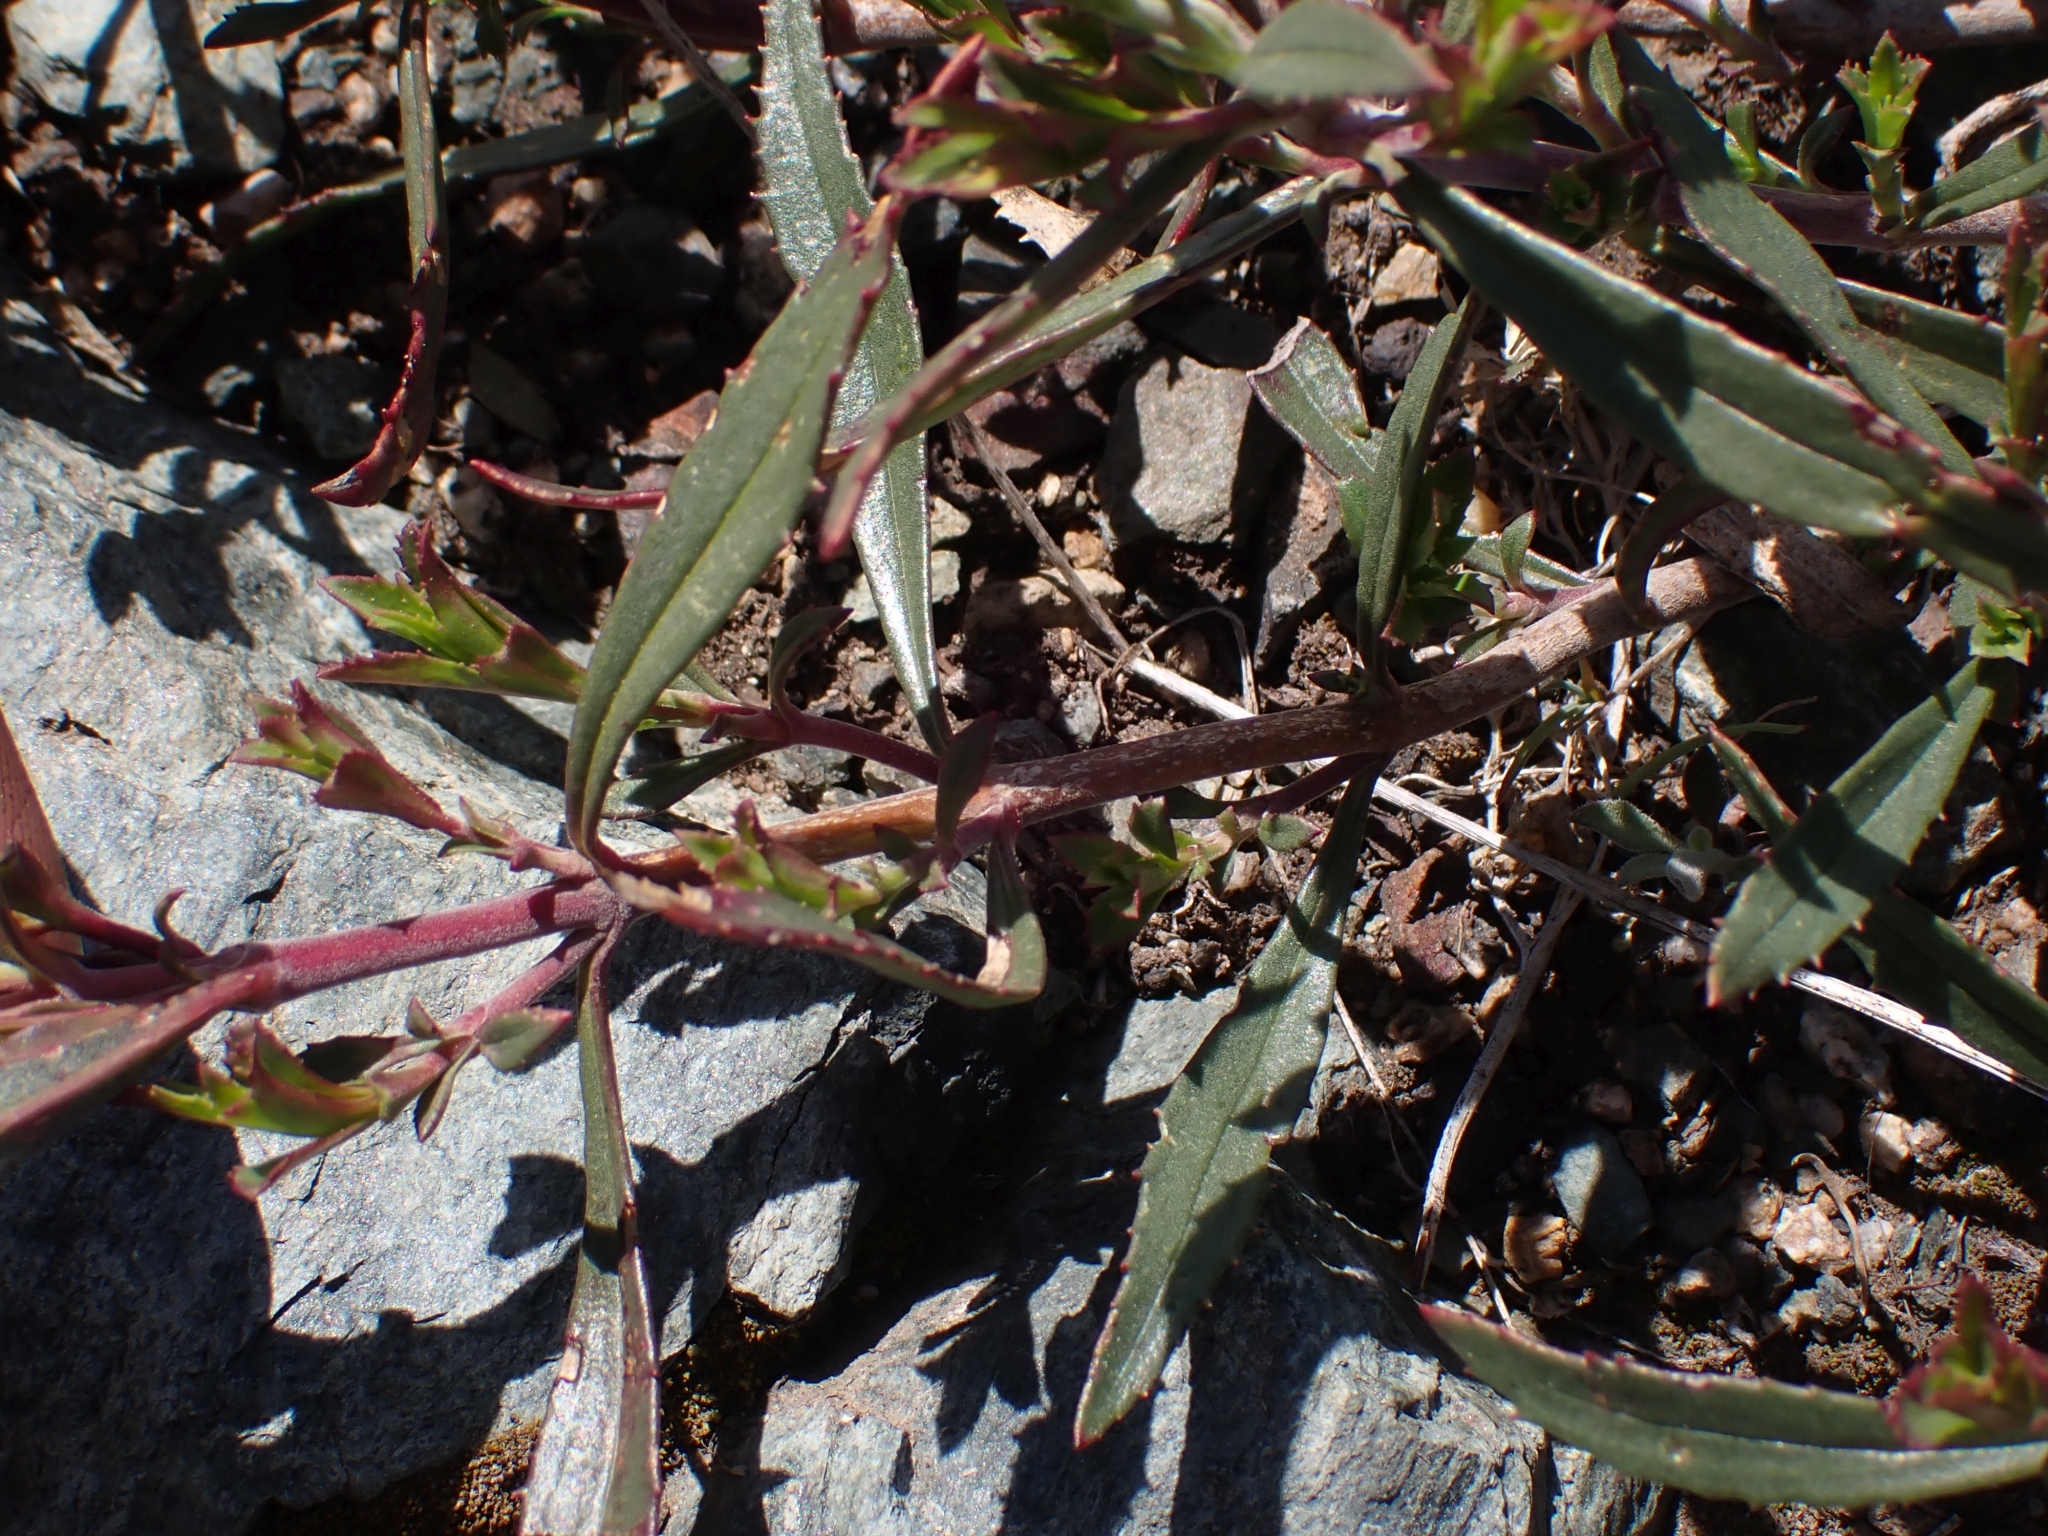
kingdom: Plantae
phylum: Tracheophyta
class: Magnoliopsida
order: Lamiales
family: Plantaginaceae
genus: Penstemon
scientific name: Penstemon fruticosus
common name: Bush penstemon
